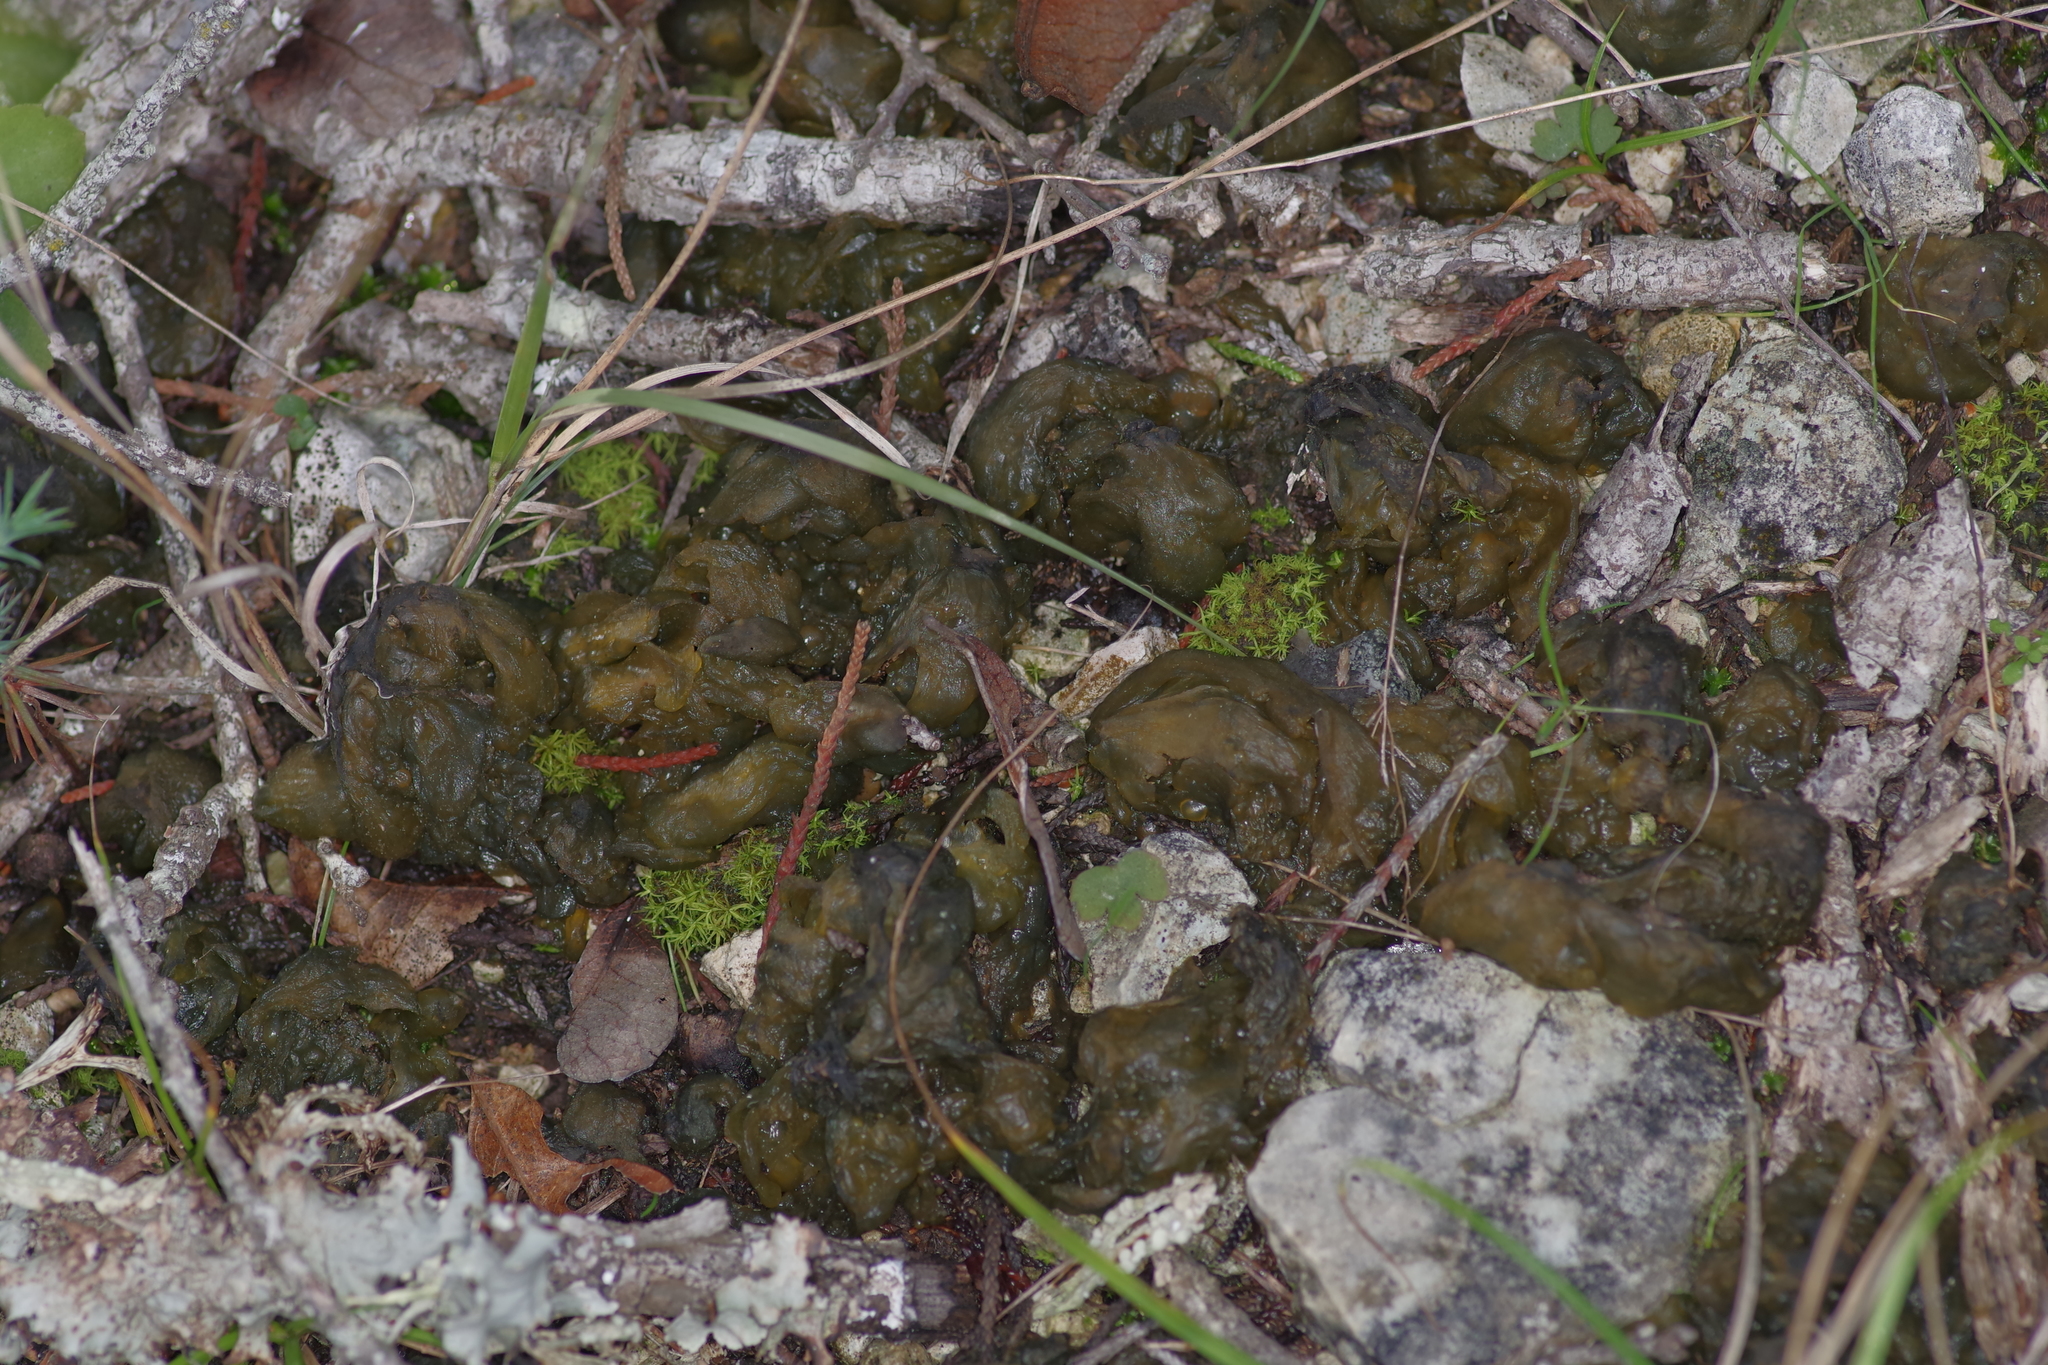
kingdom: Bacteria
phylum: Cyanobacteria
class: Cyanobacteriia
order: Cyanobacteriales
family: Nostocaceae
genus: Nostoc
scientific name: Nostoc commune
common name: Star jelly
